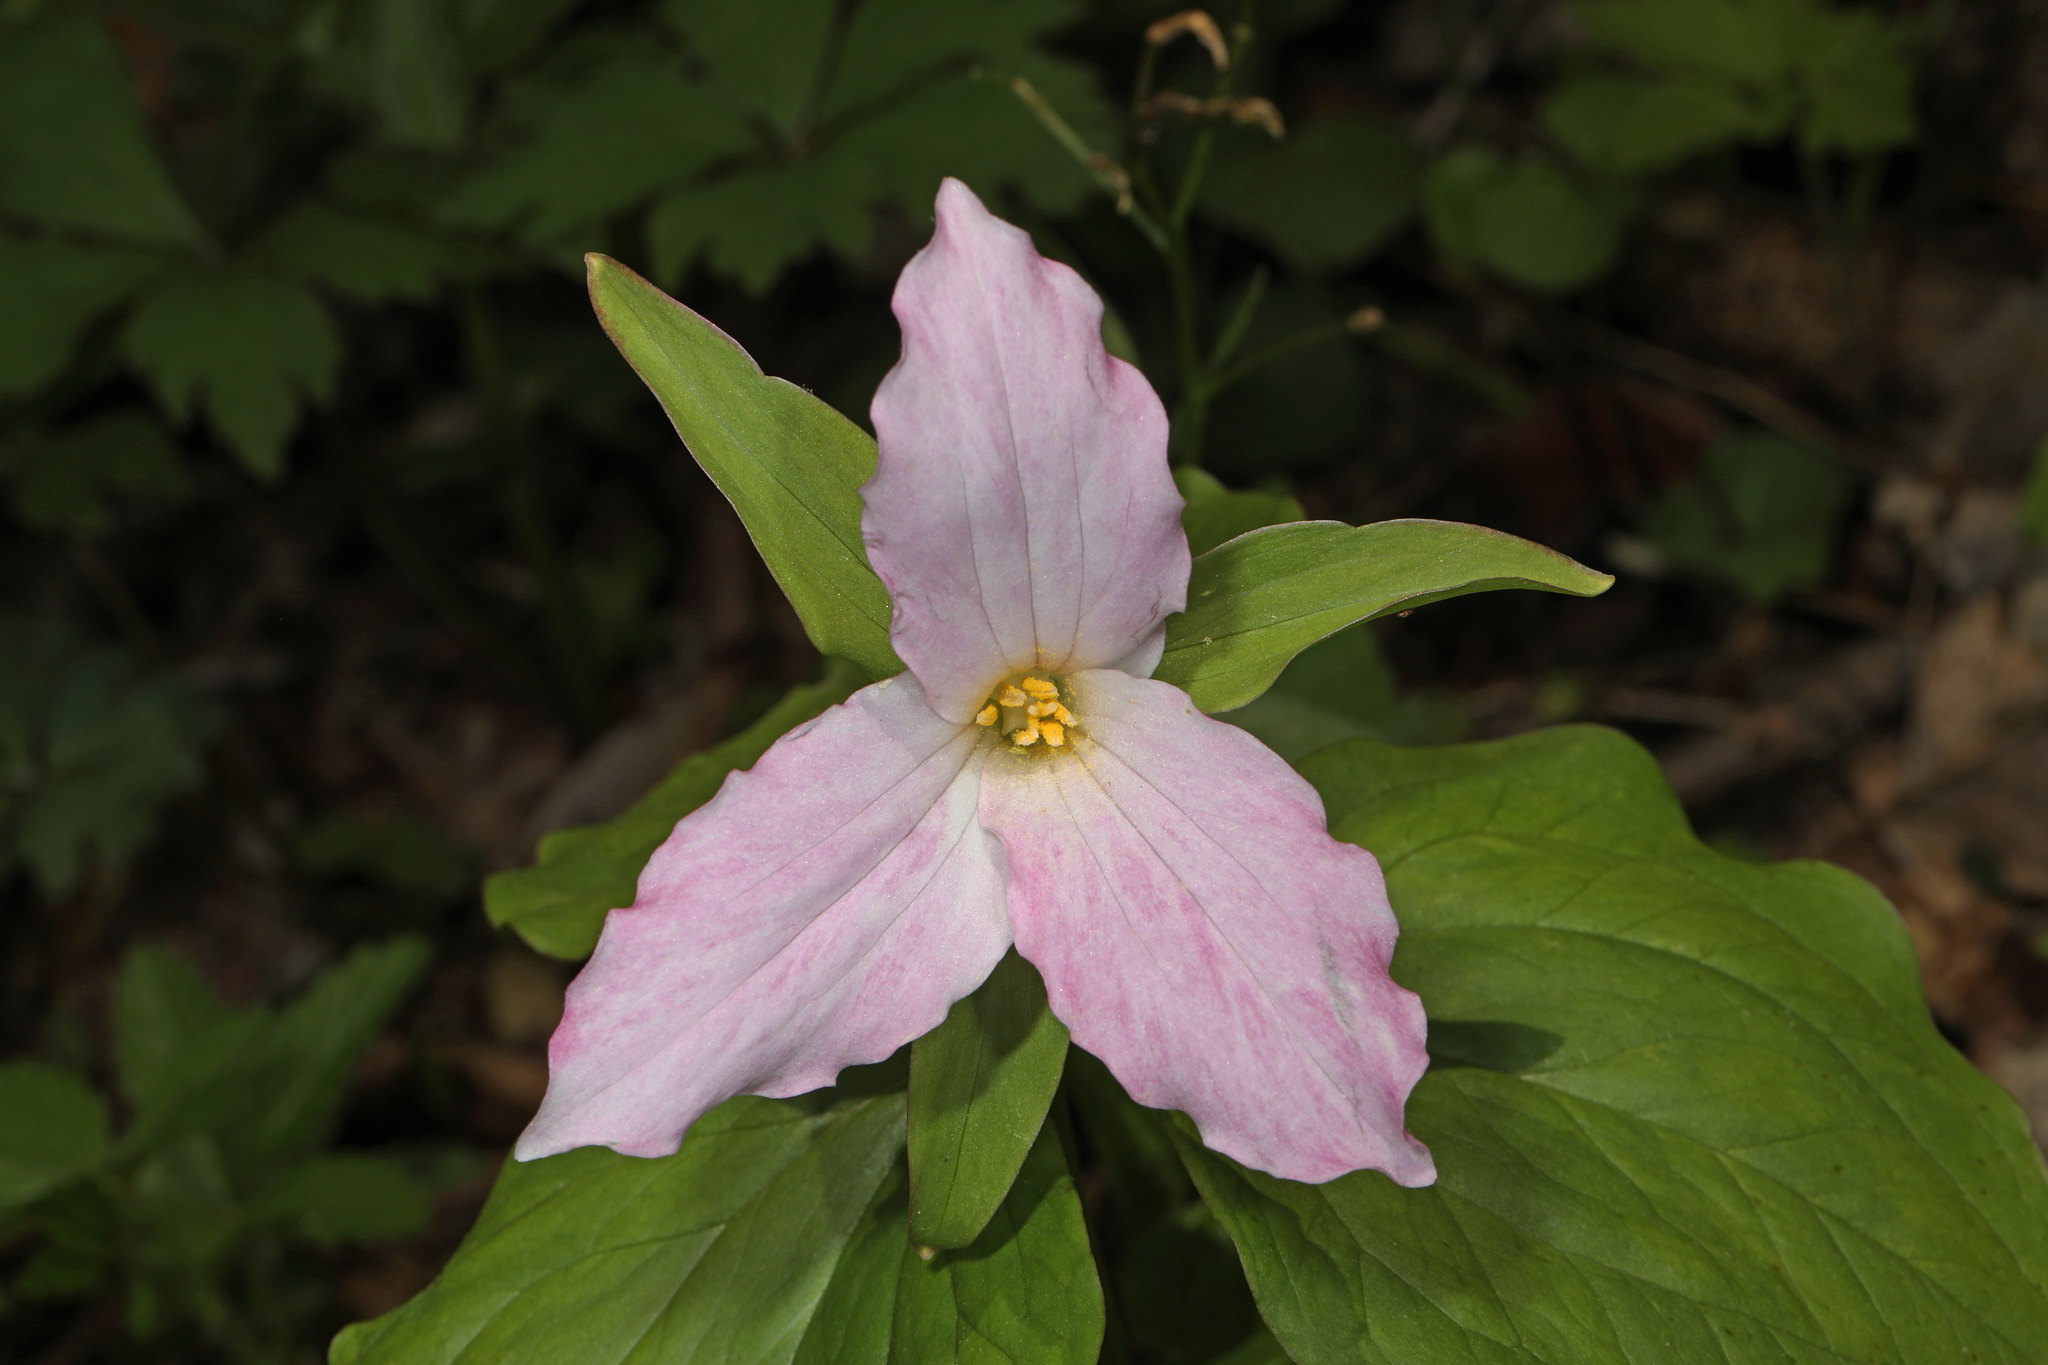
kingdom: Plantae
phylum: Tracheophyta
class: Liliopsida
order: Liliales
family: Melanthiaceae
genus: Trillium
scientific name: Trillium grandiflorum
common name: Great white trillium
